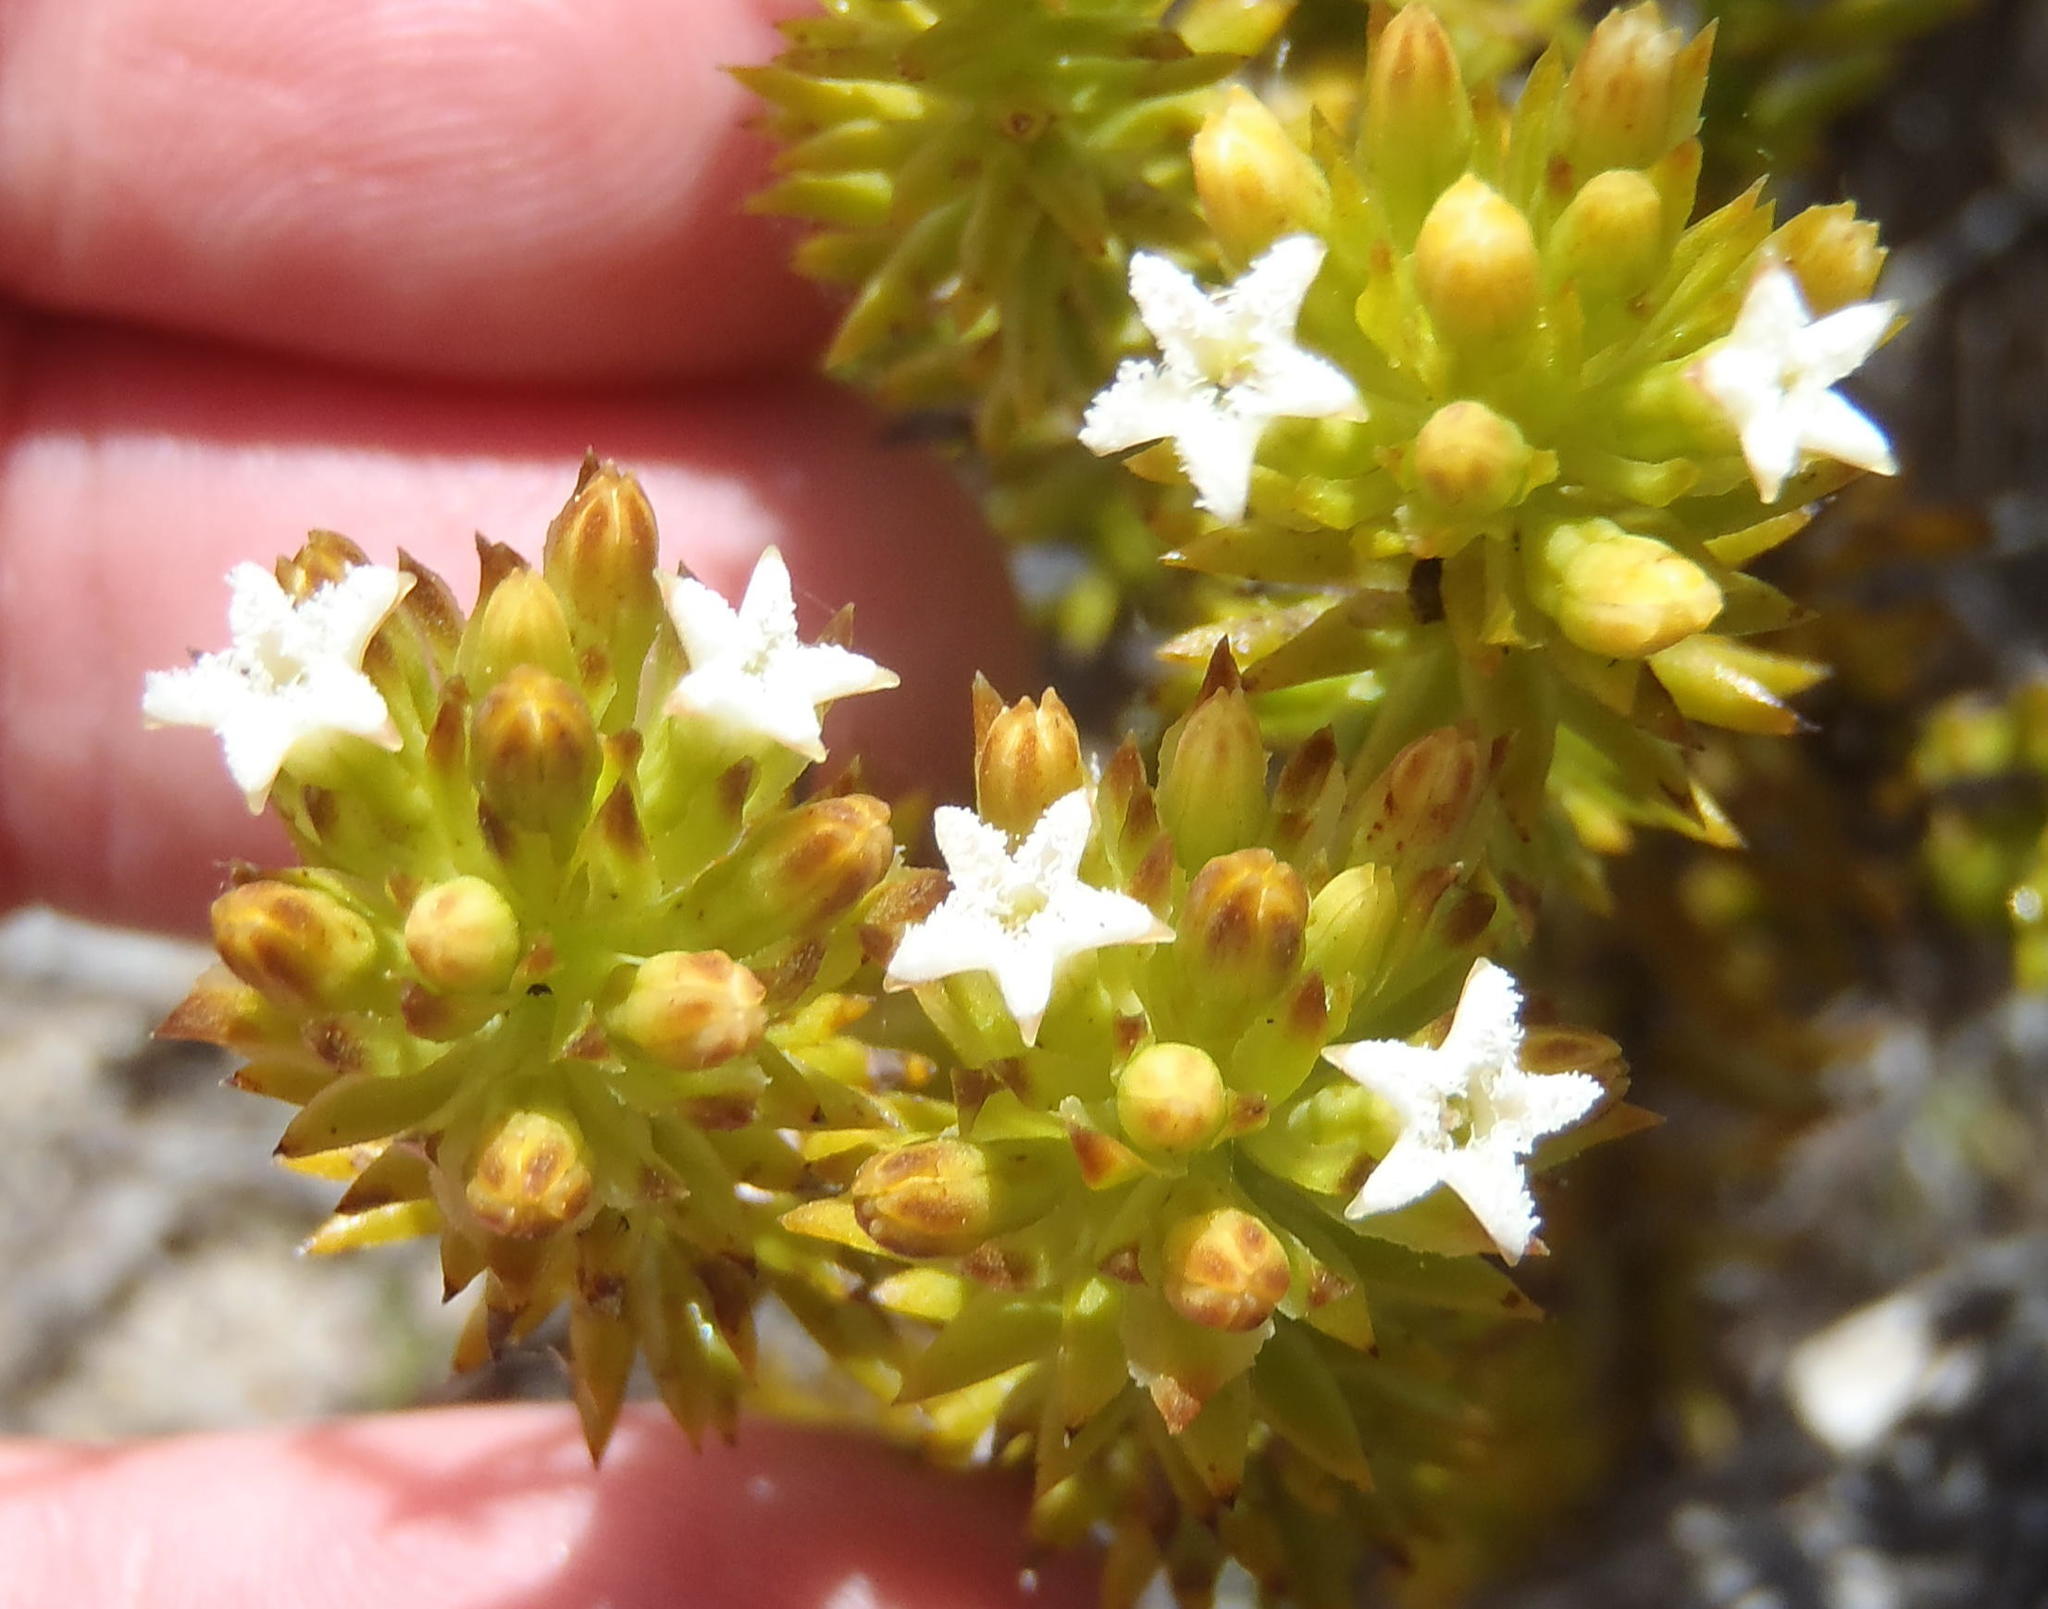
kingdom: Plantae
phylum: Tracheophyta
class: Magnoliopsida
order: Santalales
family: Thesiaceae
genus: Thesium
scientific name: Thesium viridifolium
